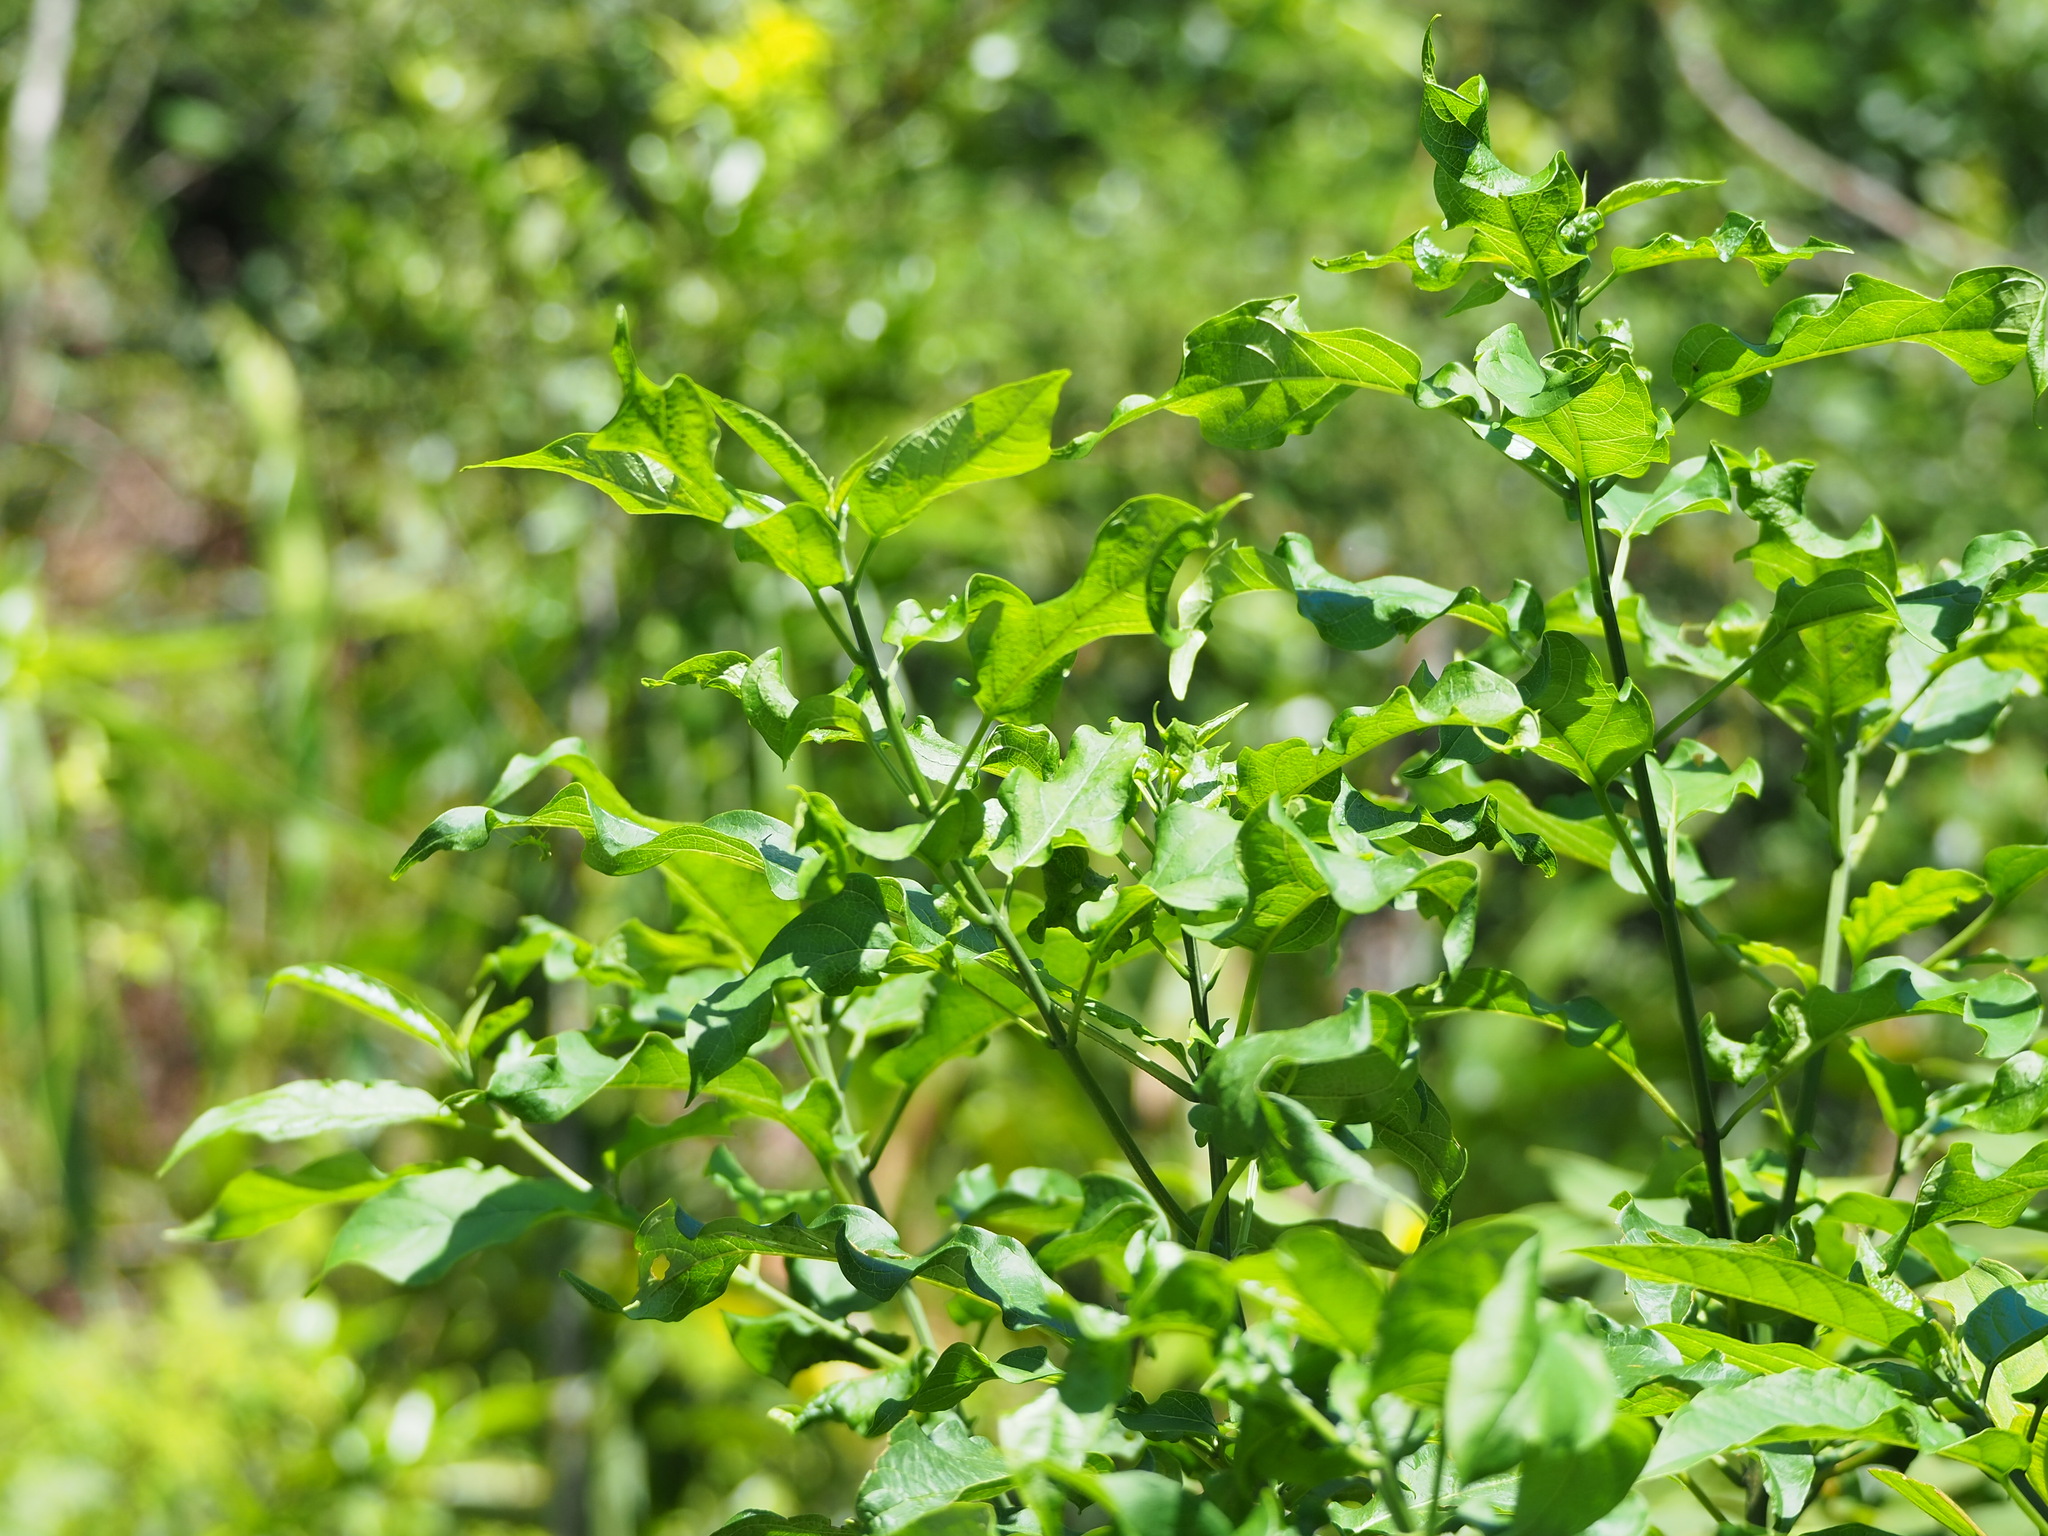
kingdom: Plantae
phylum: Tracheophyta
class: Magnoliopsida
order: Lamiales
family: Lamiaceae
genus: Clerodendrum
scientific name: Clerodendrum cyrtophyllum
